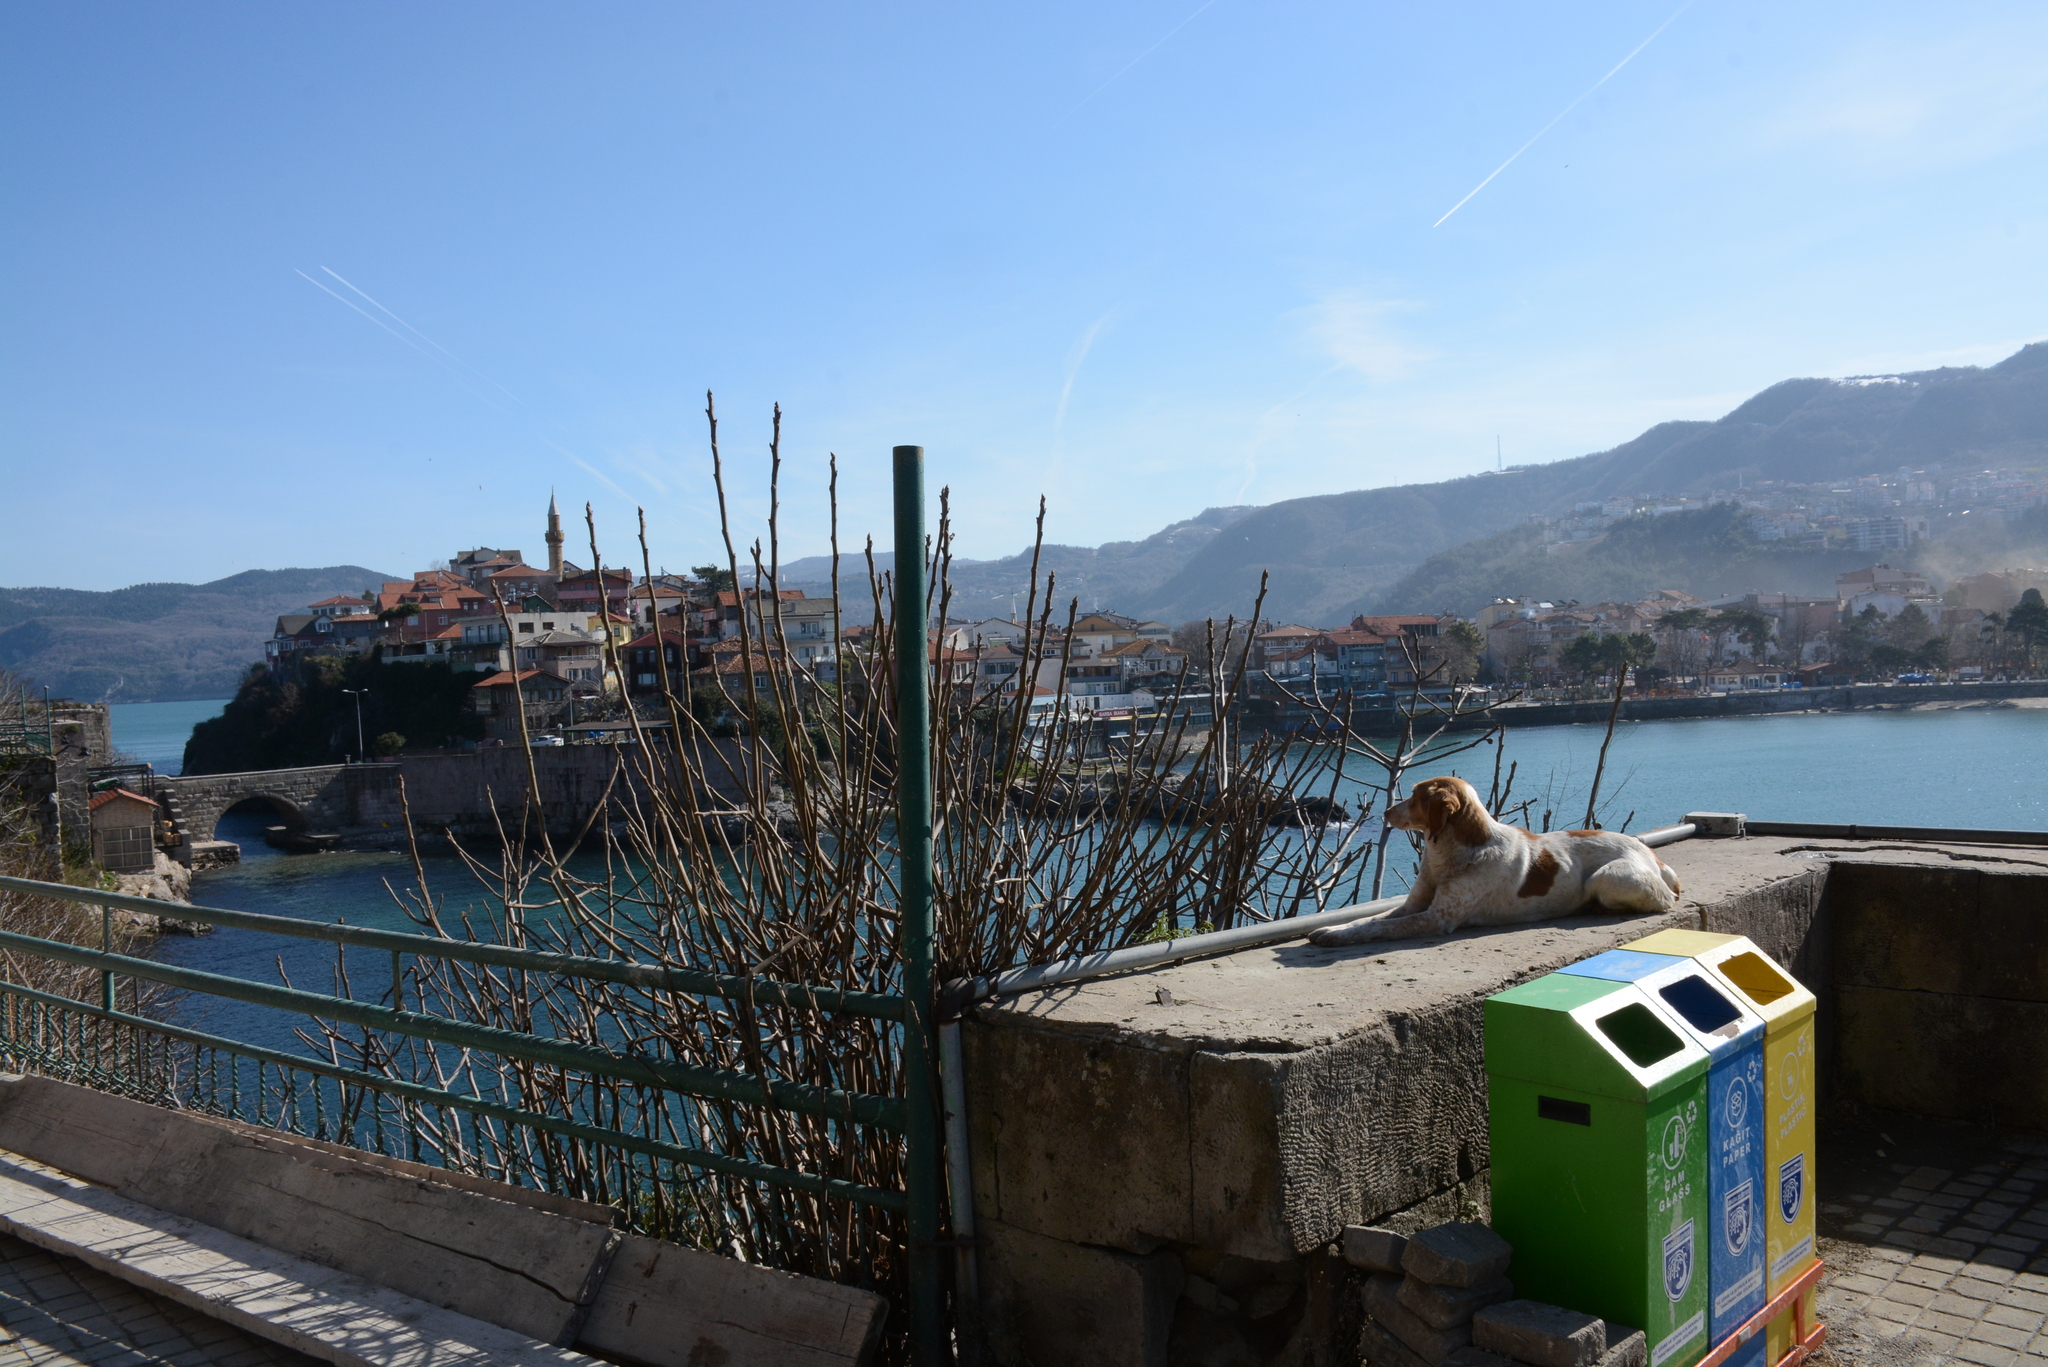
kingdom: Animalia
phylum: Chordata
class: Mammalia
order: Carnivora
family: Canidae
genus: Canis
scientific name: Canis lupus
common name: Gray wolf
